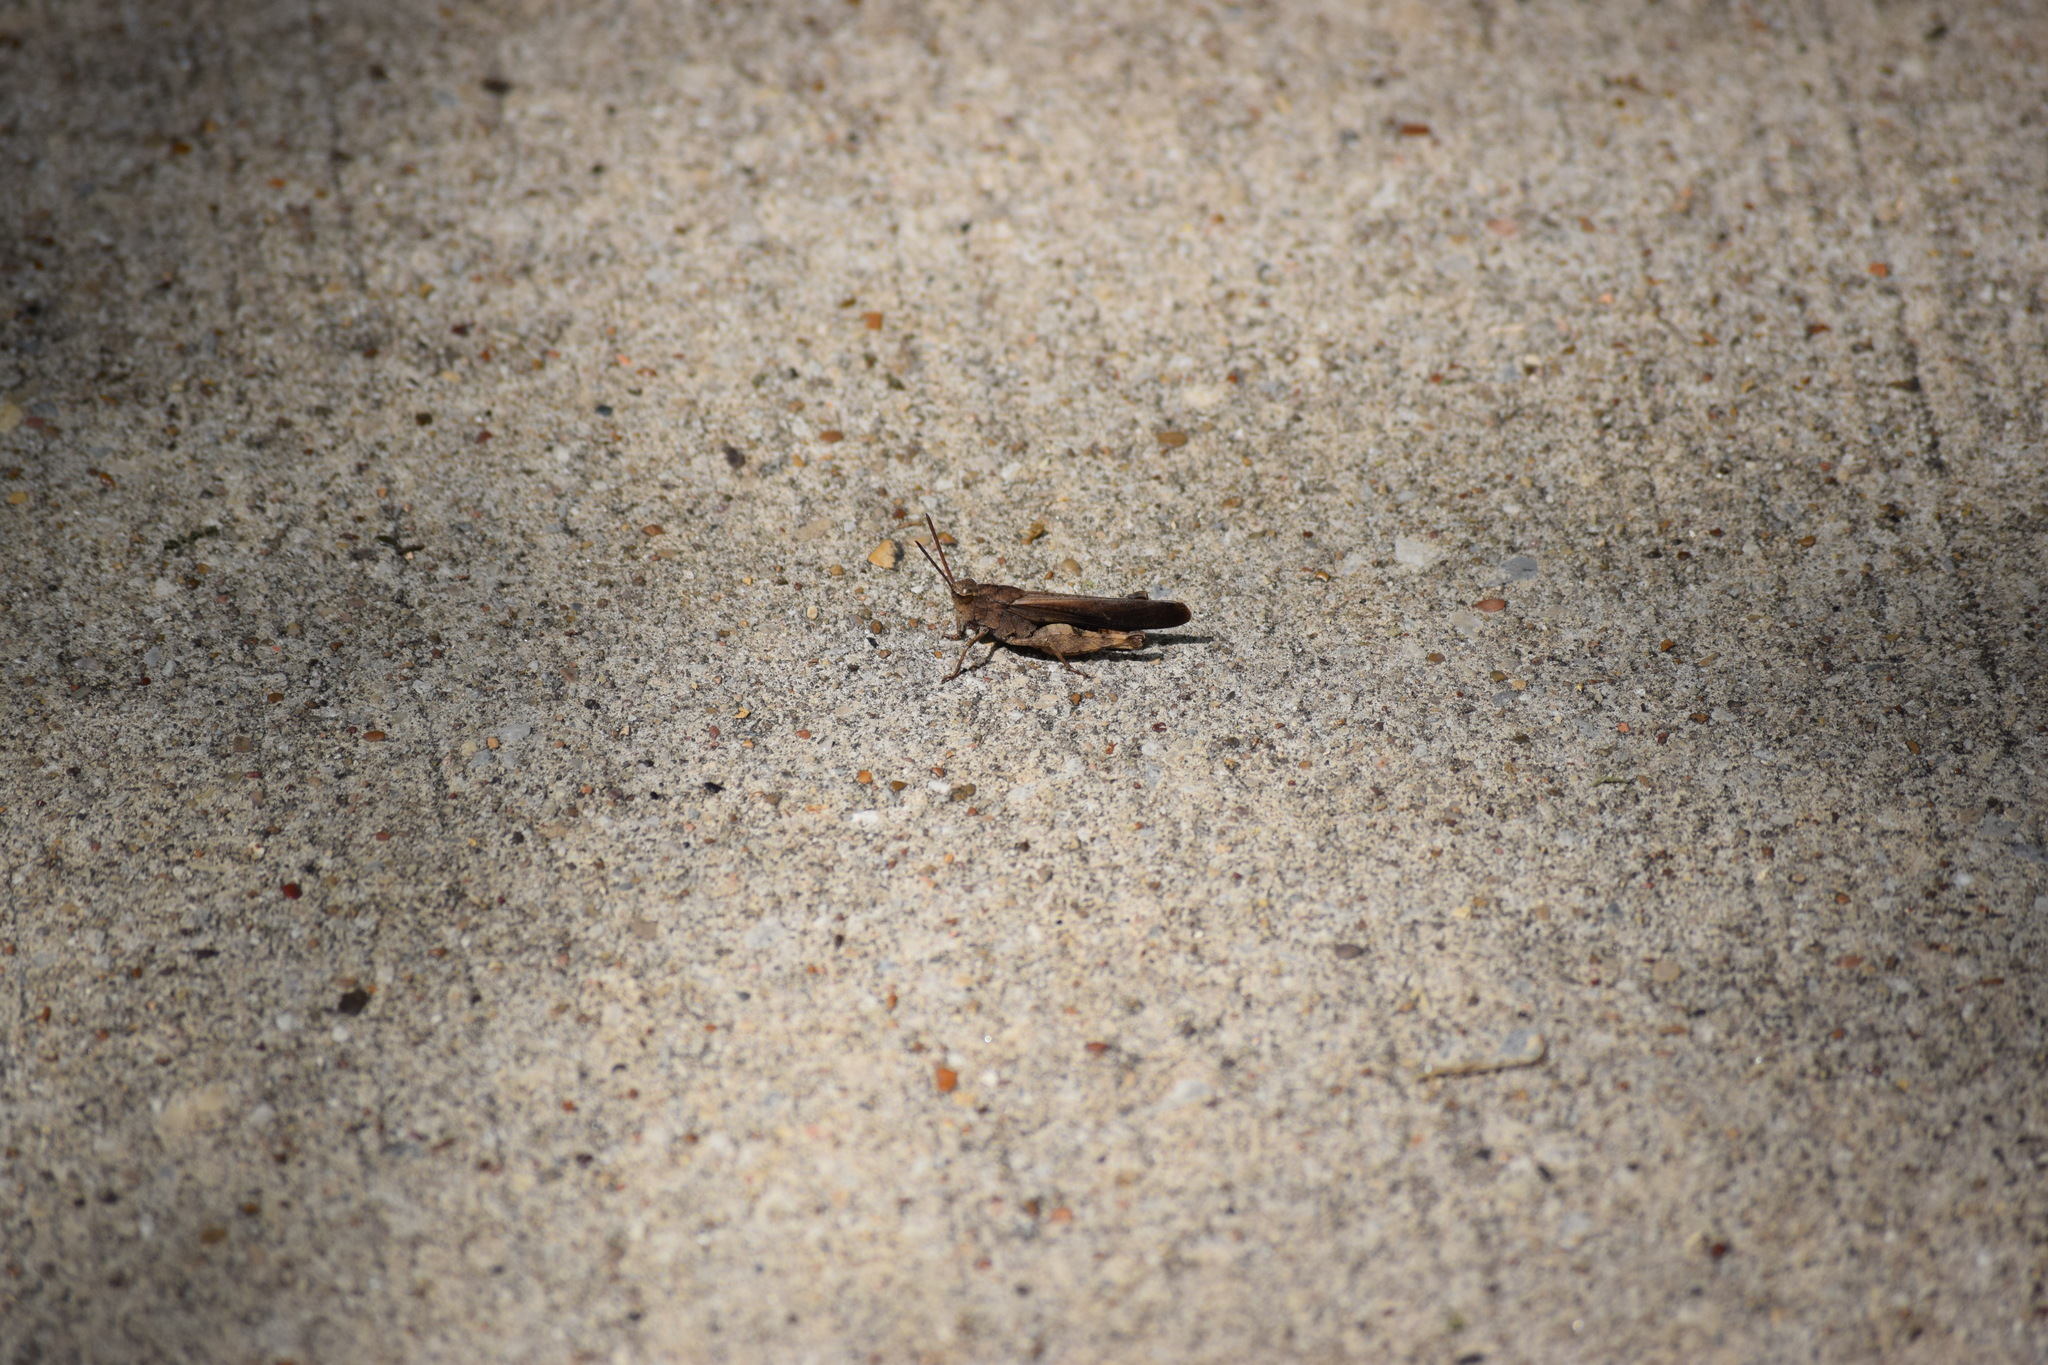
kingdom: Animalia
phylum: Arthropoda
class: Insecta
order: Orthoptera
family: Acrididae
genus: Chortophaga
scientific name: Chortophaga viridifasciata
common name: Green-striped grasshopper
